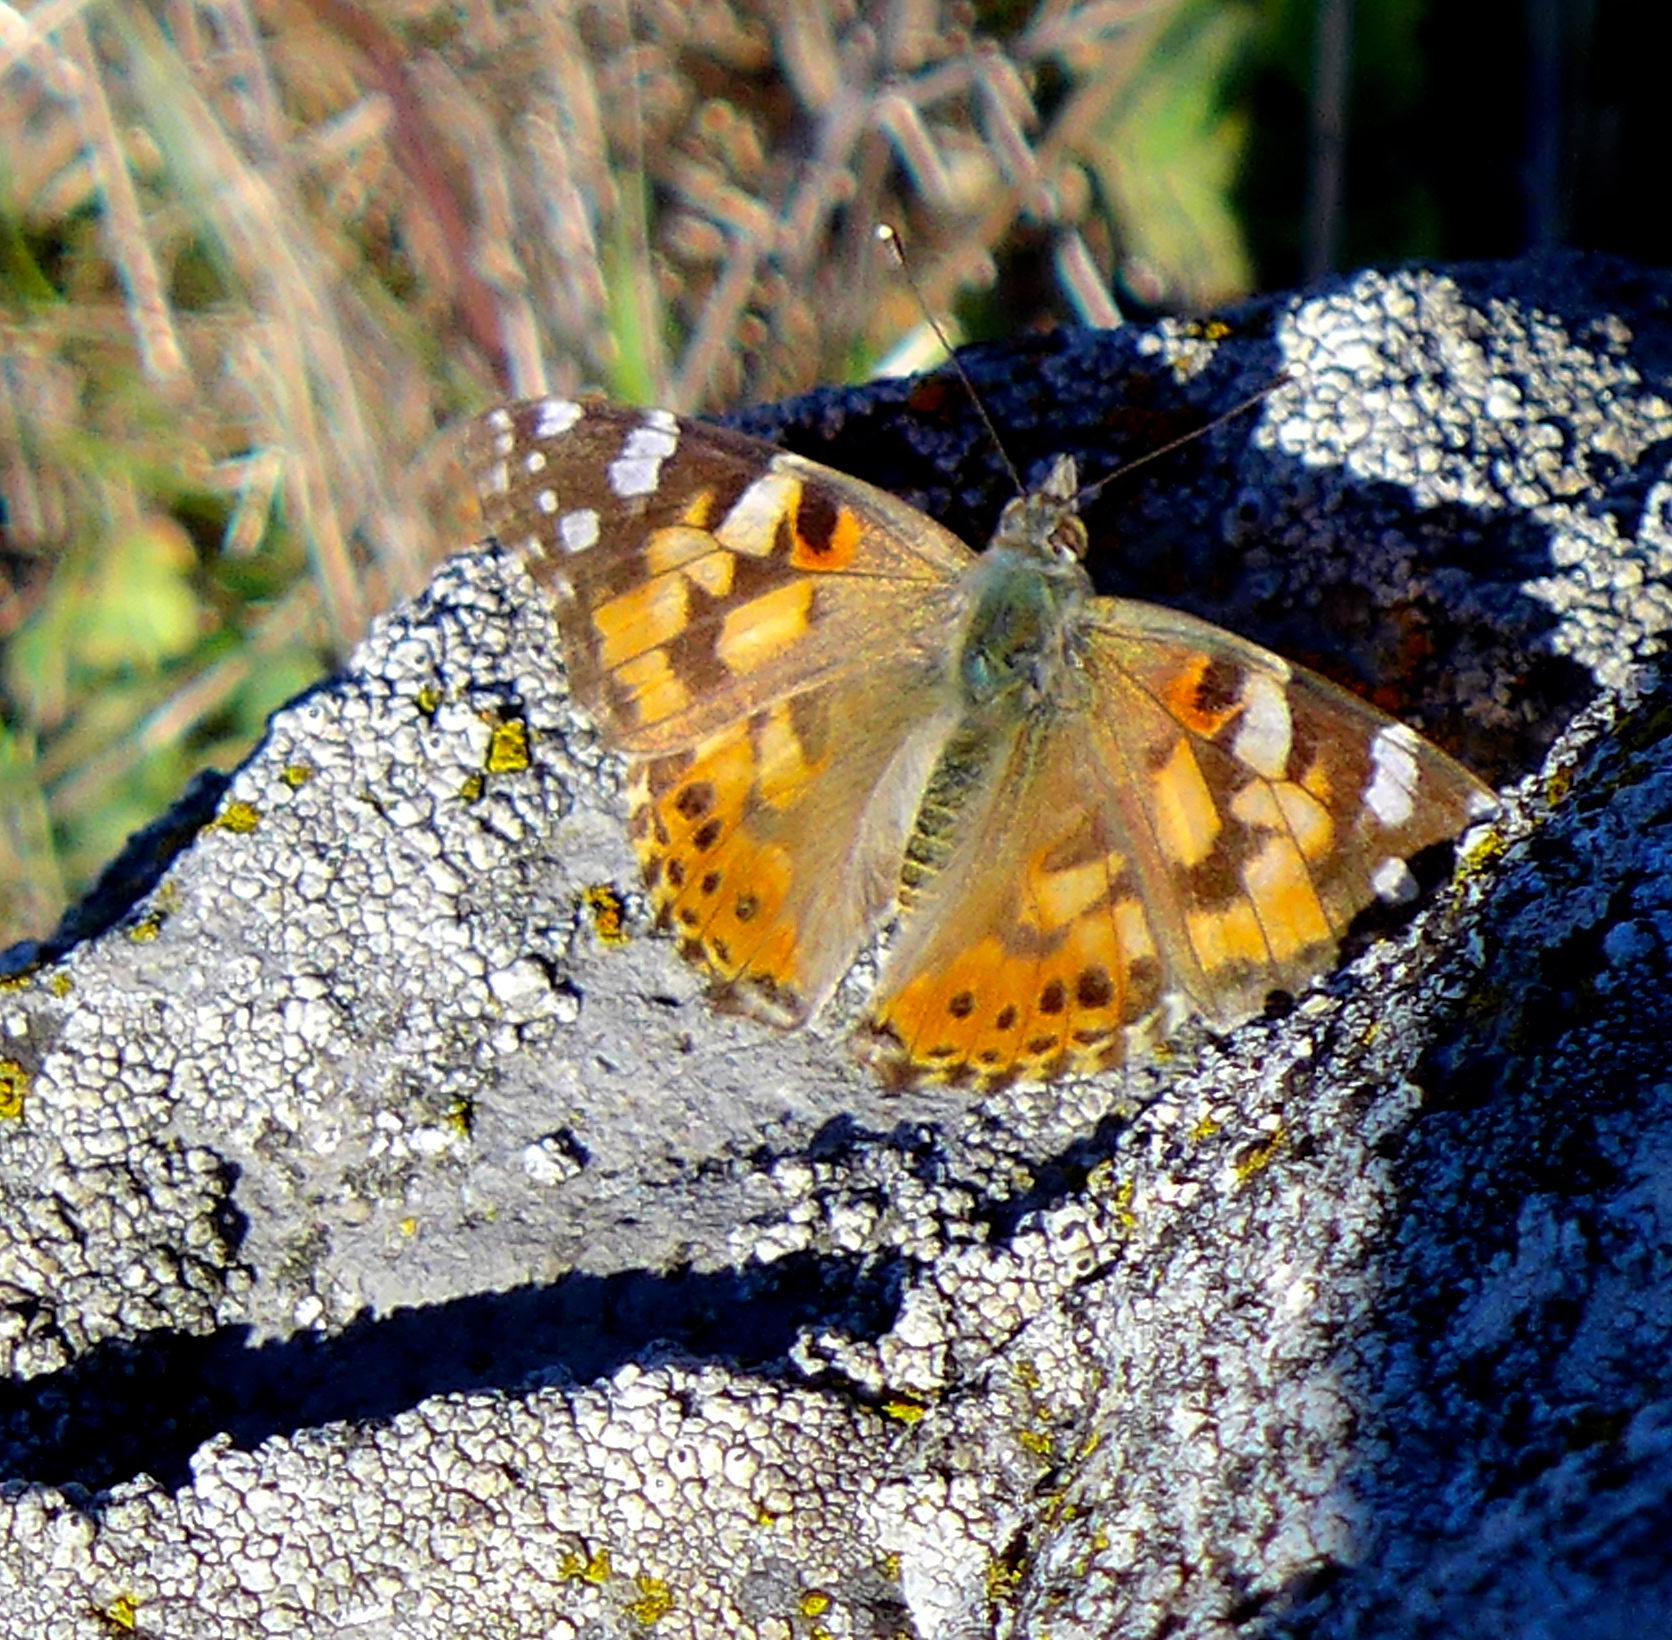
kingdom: Animalia
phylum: Arthropoda
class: Insecta
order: Lepidoptera
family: Nymphalidae
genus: Vanessa
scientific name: Vanessa cardui
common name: Painted lady
